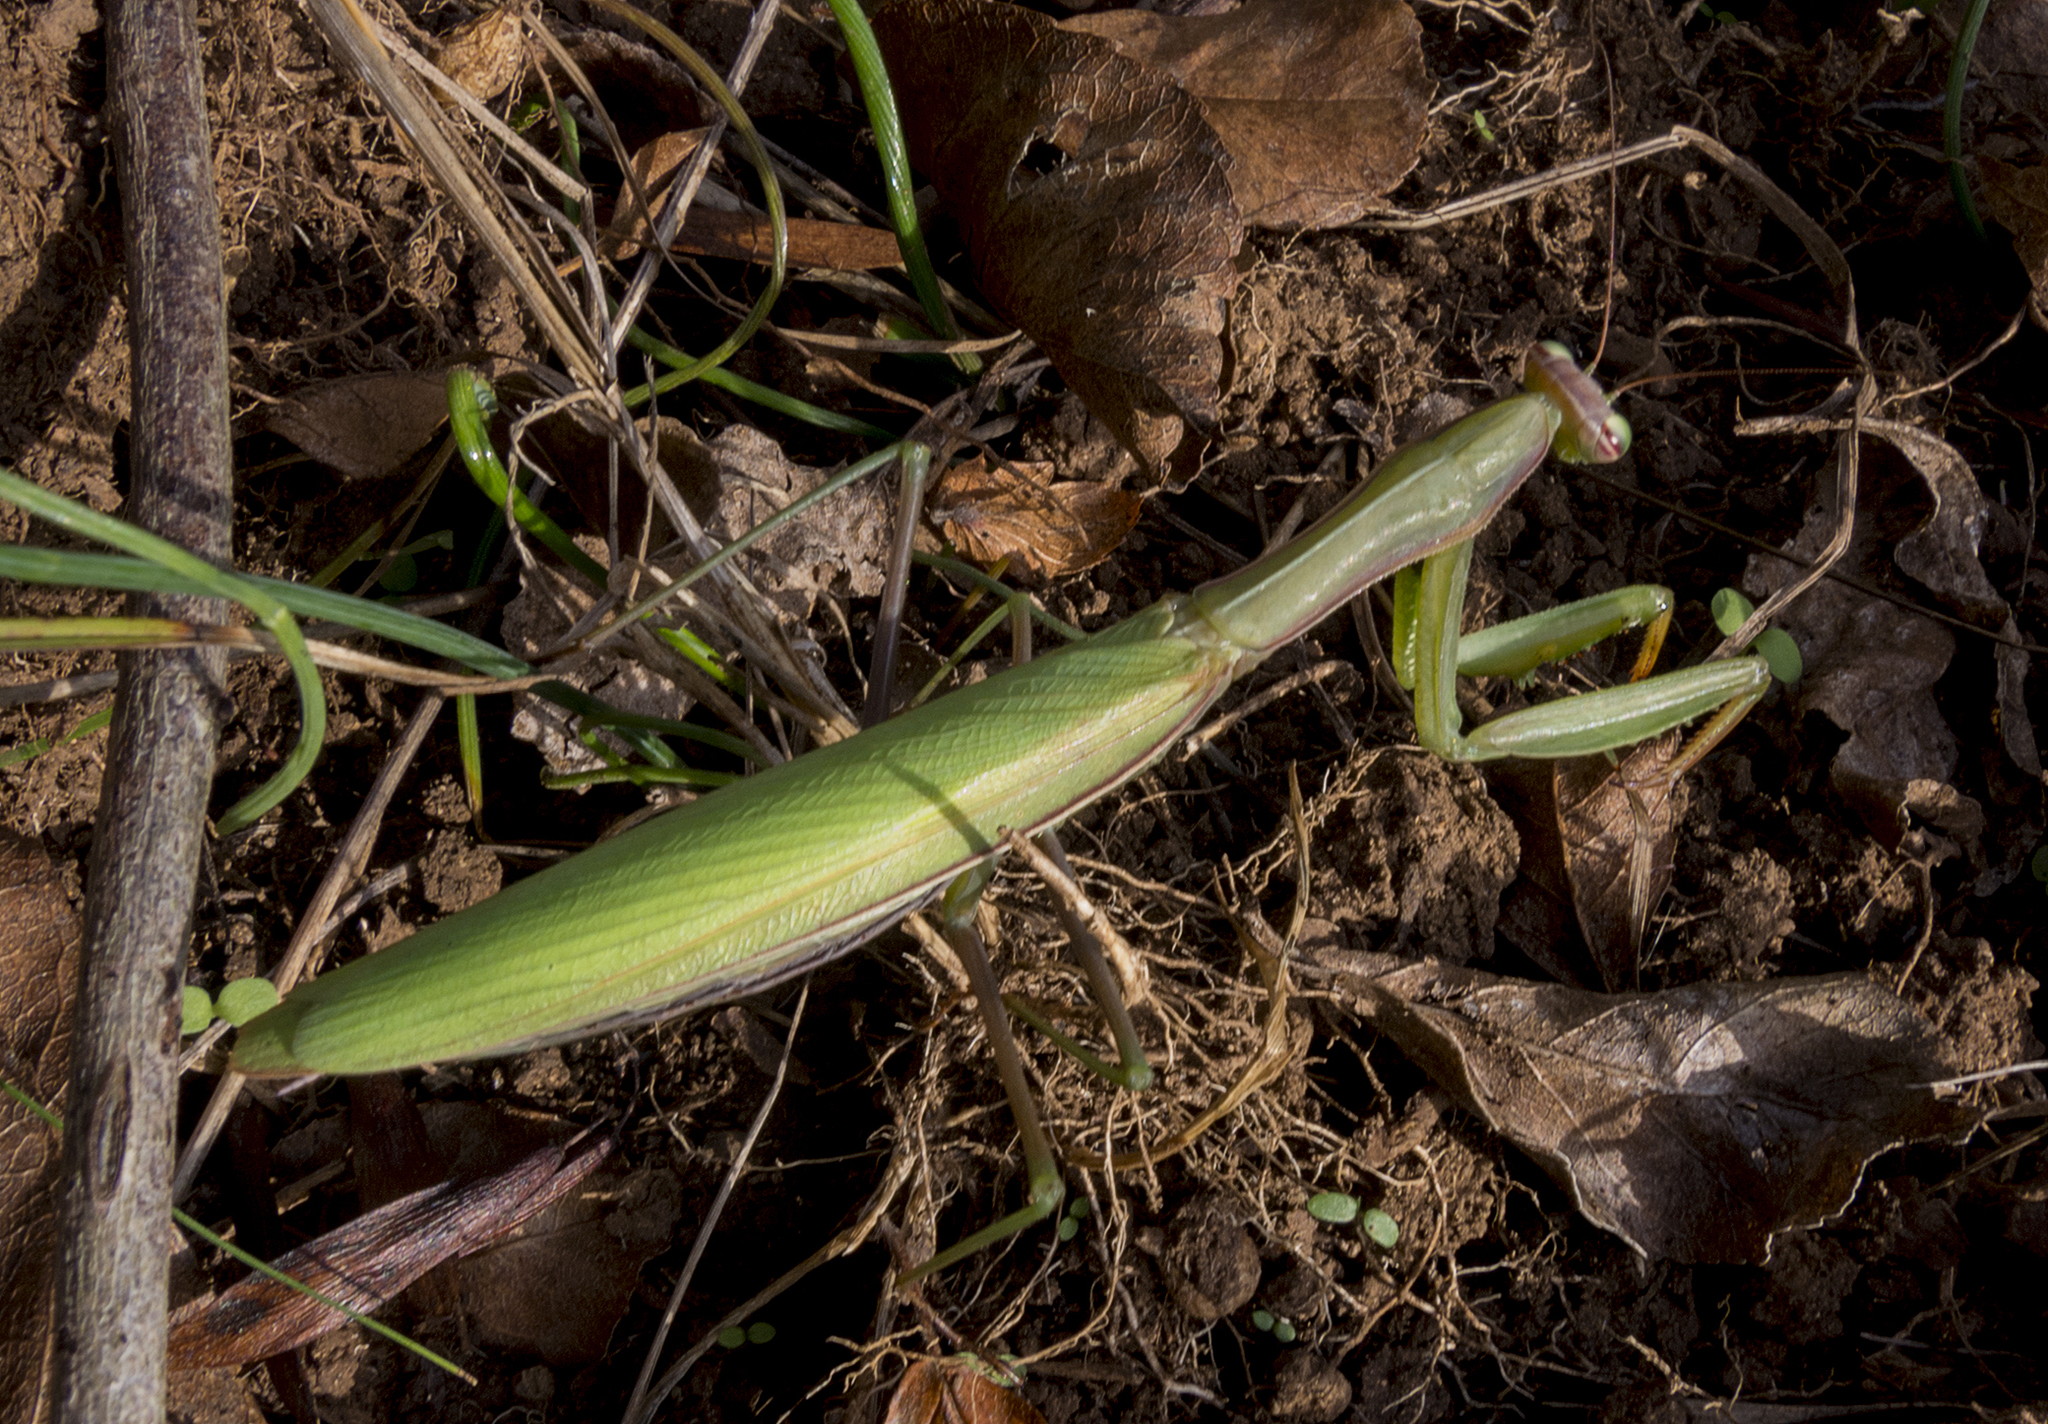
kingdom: Animalia
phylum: Arthropoda
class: Insecta
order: Mantodea
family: Mantidae
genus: Mantis
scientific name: Mantis religiosa
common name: Praying mantis
